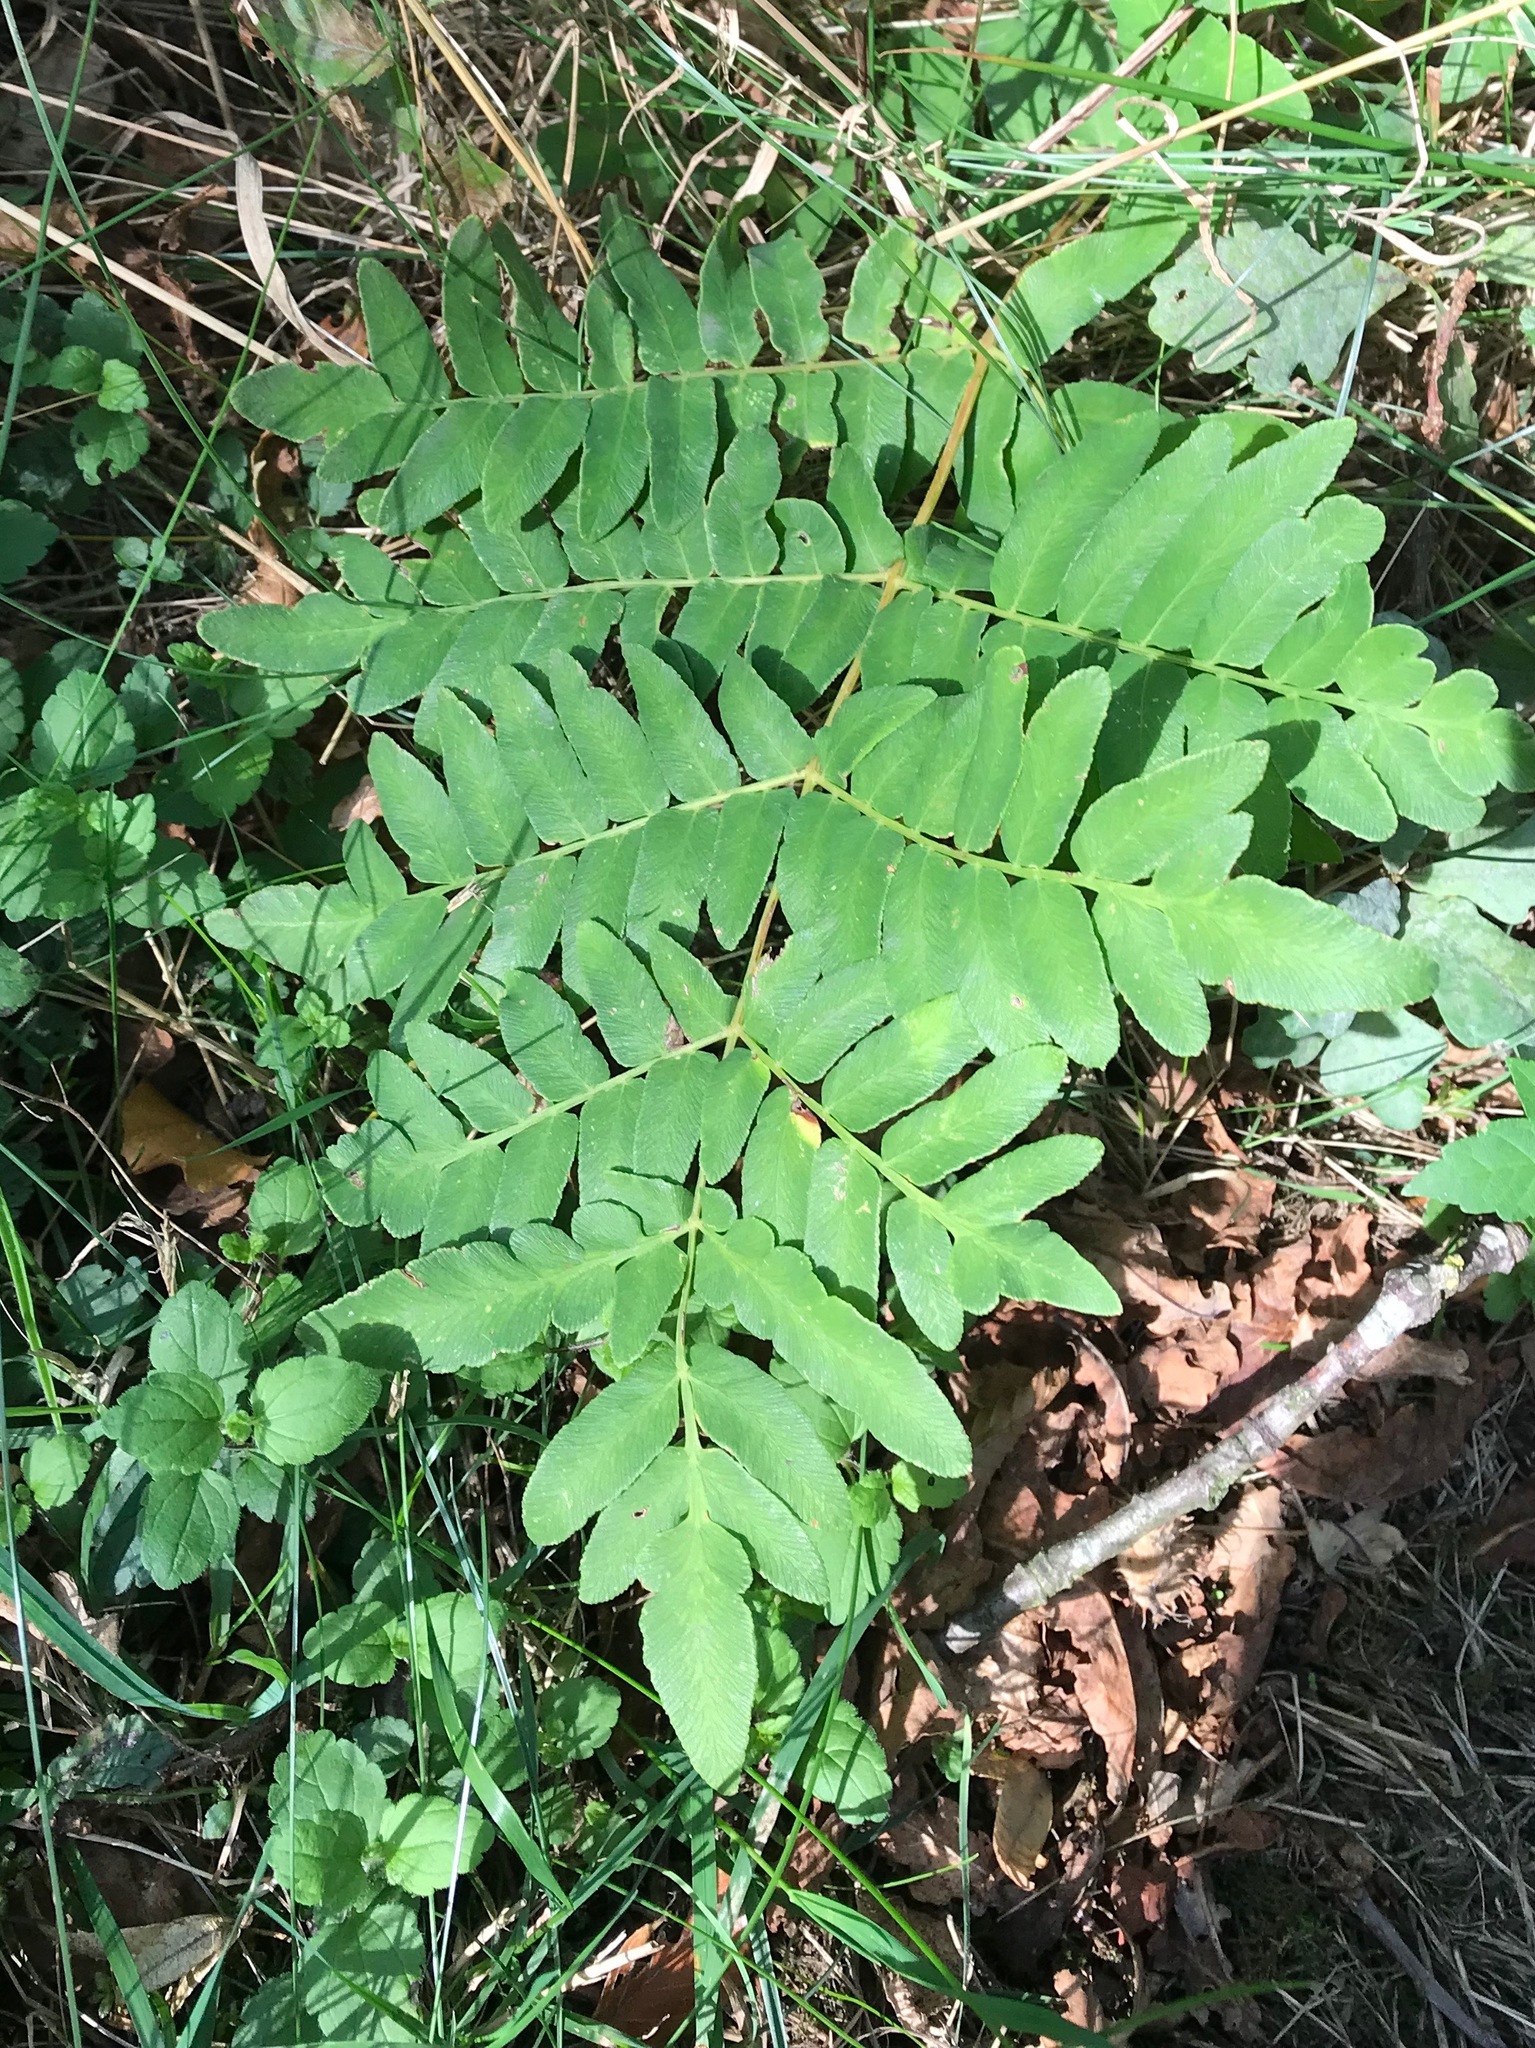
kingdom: Plantae
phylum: Tracheophyta
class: Polypodiopsida
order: Osmundales
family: Osmundaceae
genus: Osmunda
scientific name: Osmunda regalis
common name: Royal fern
